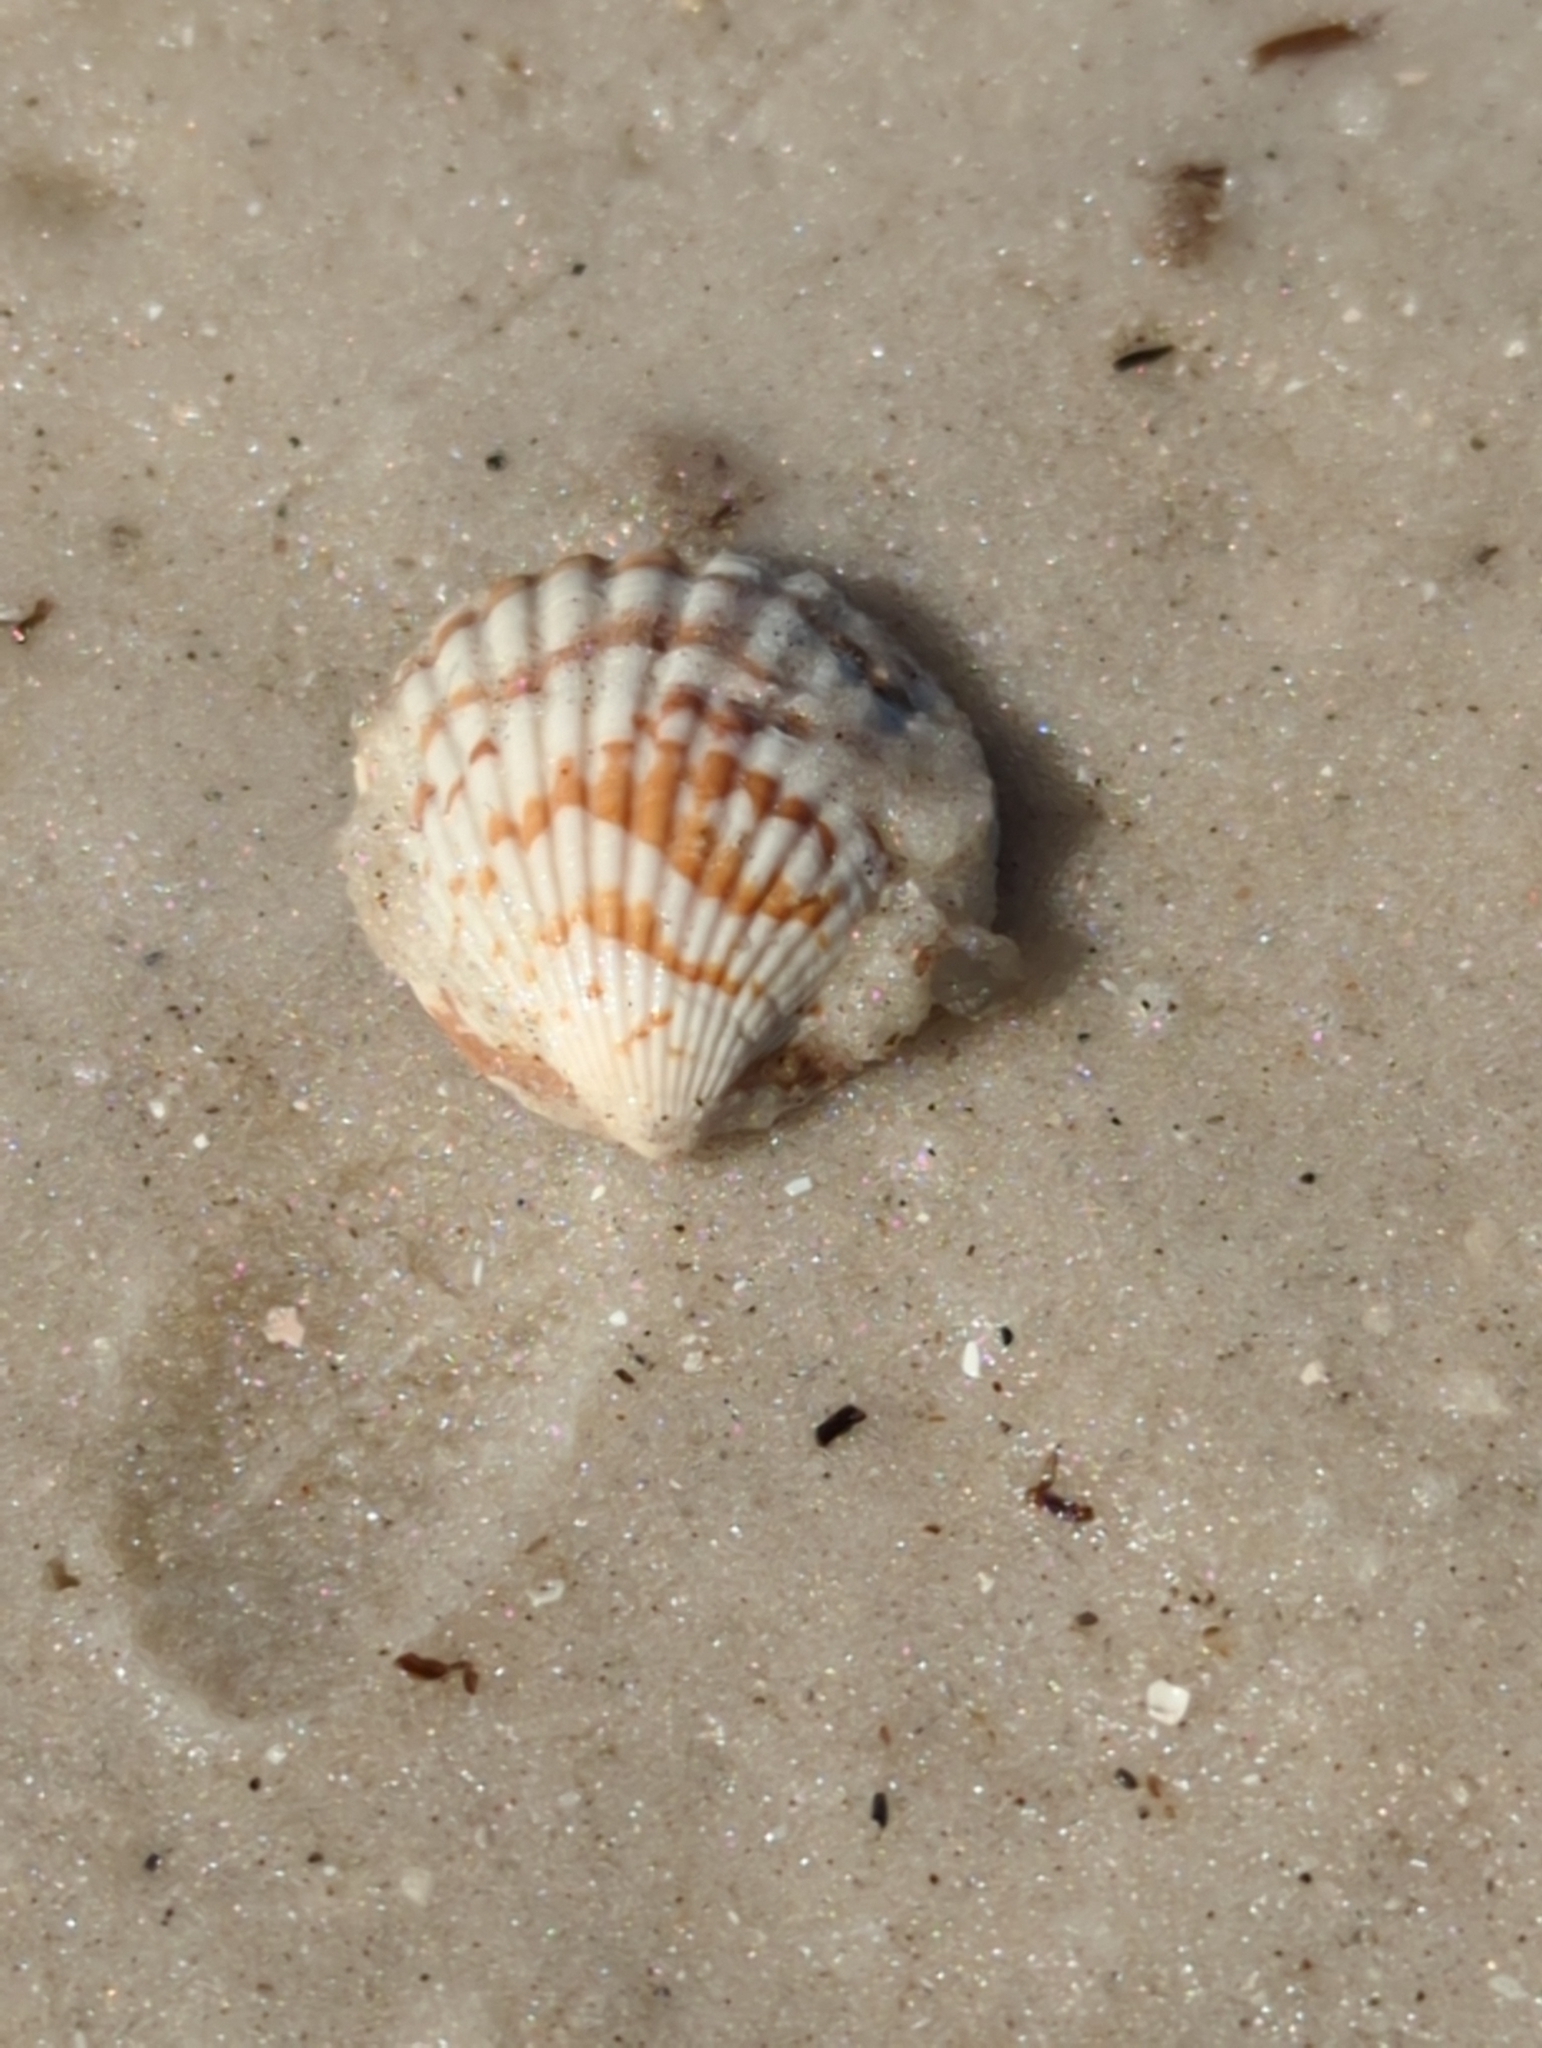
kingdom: Animalia
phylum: Mollusca
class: Bivalvia
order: Arcida
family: Glycymerididae
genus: Tucetona
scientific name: Tucetona pectinata
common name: Comb bittersweet
